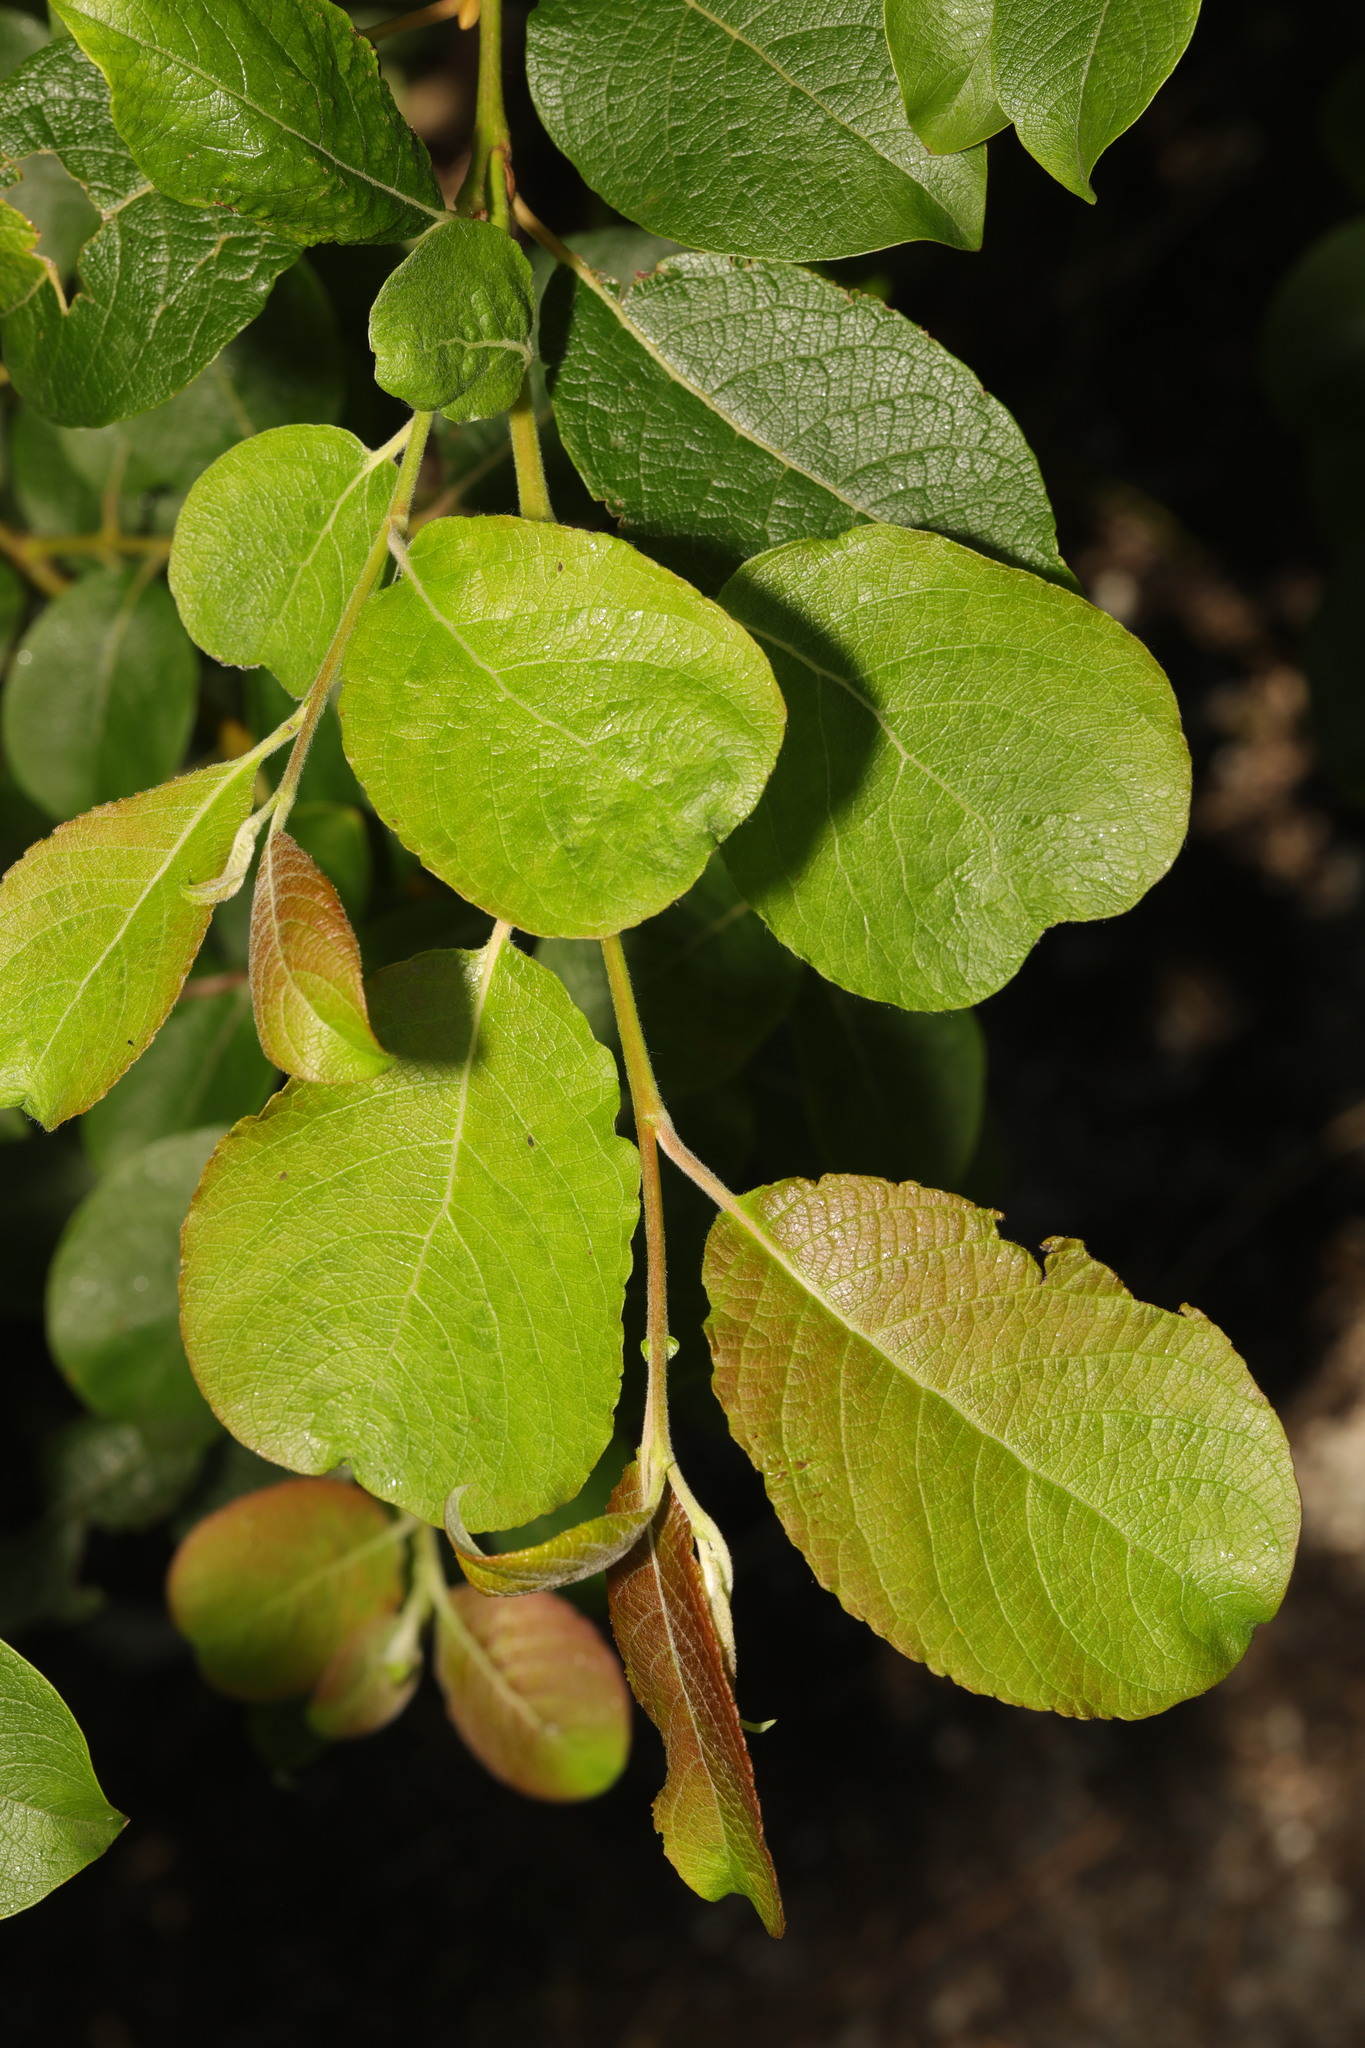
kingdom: Plantae
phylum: Tracheophyta
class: Magnoliopsida
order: Malpighiales
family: Salicaceae
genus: Salix
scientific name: Salix caprea
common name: Goat willow
